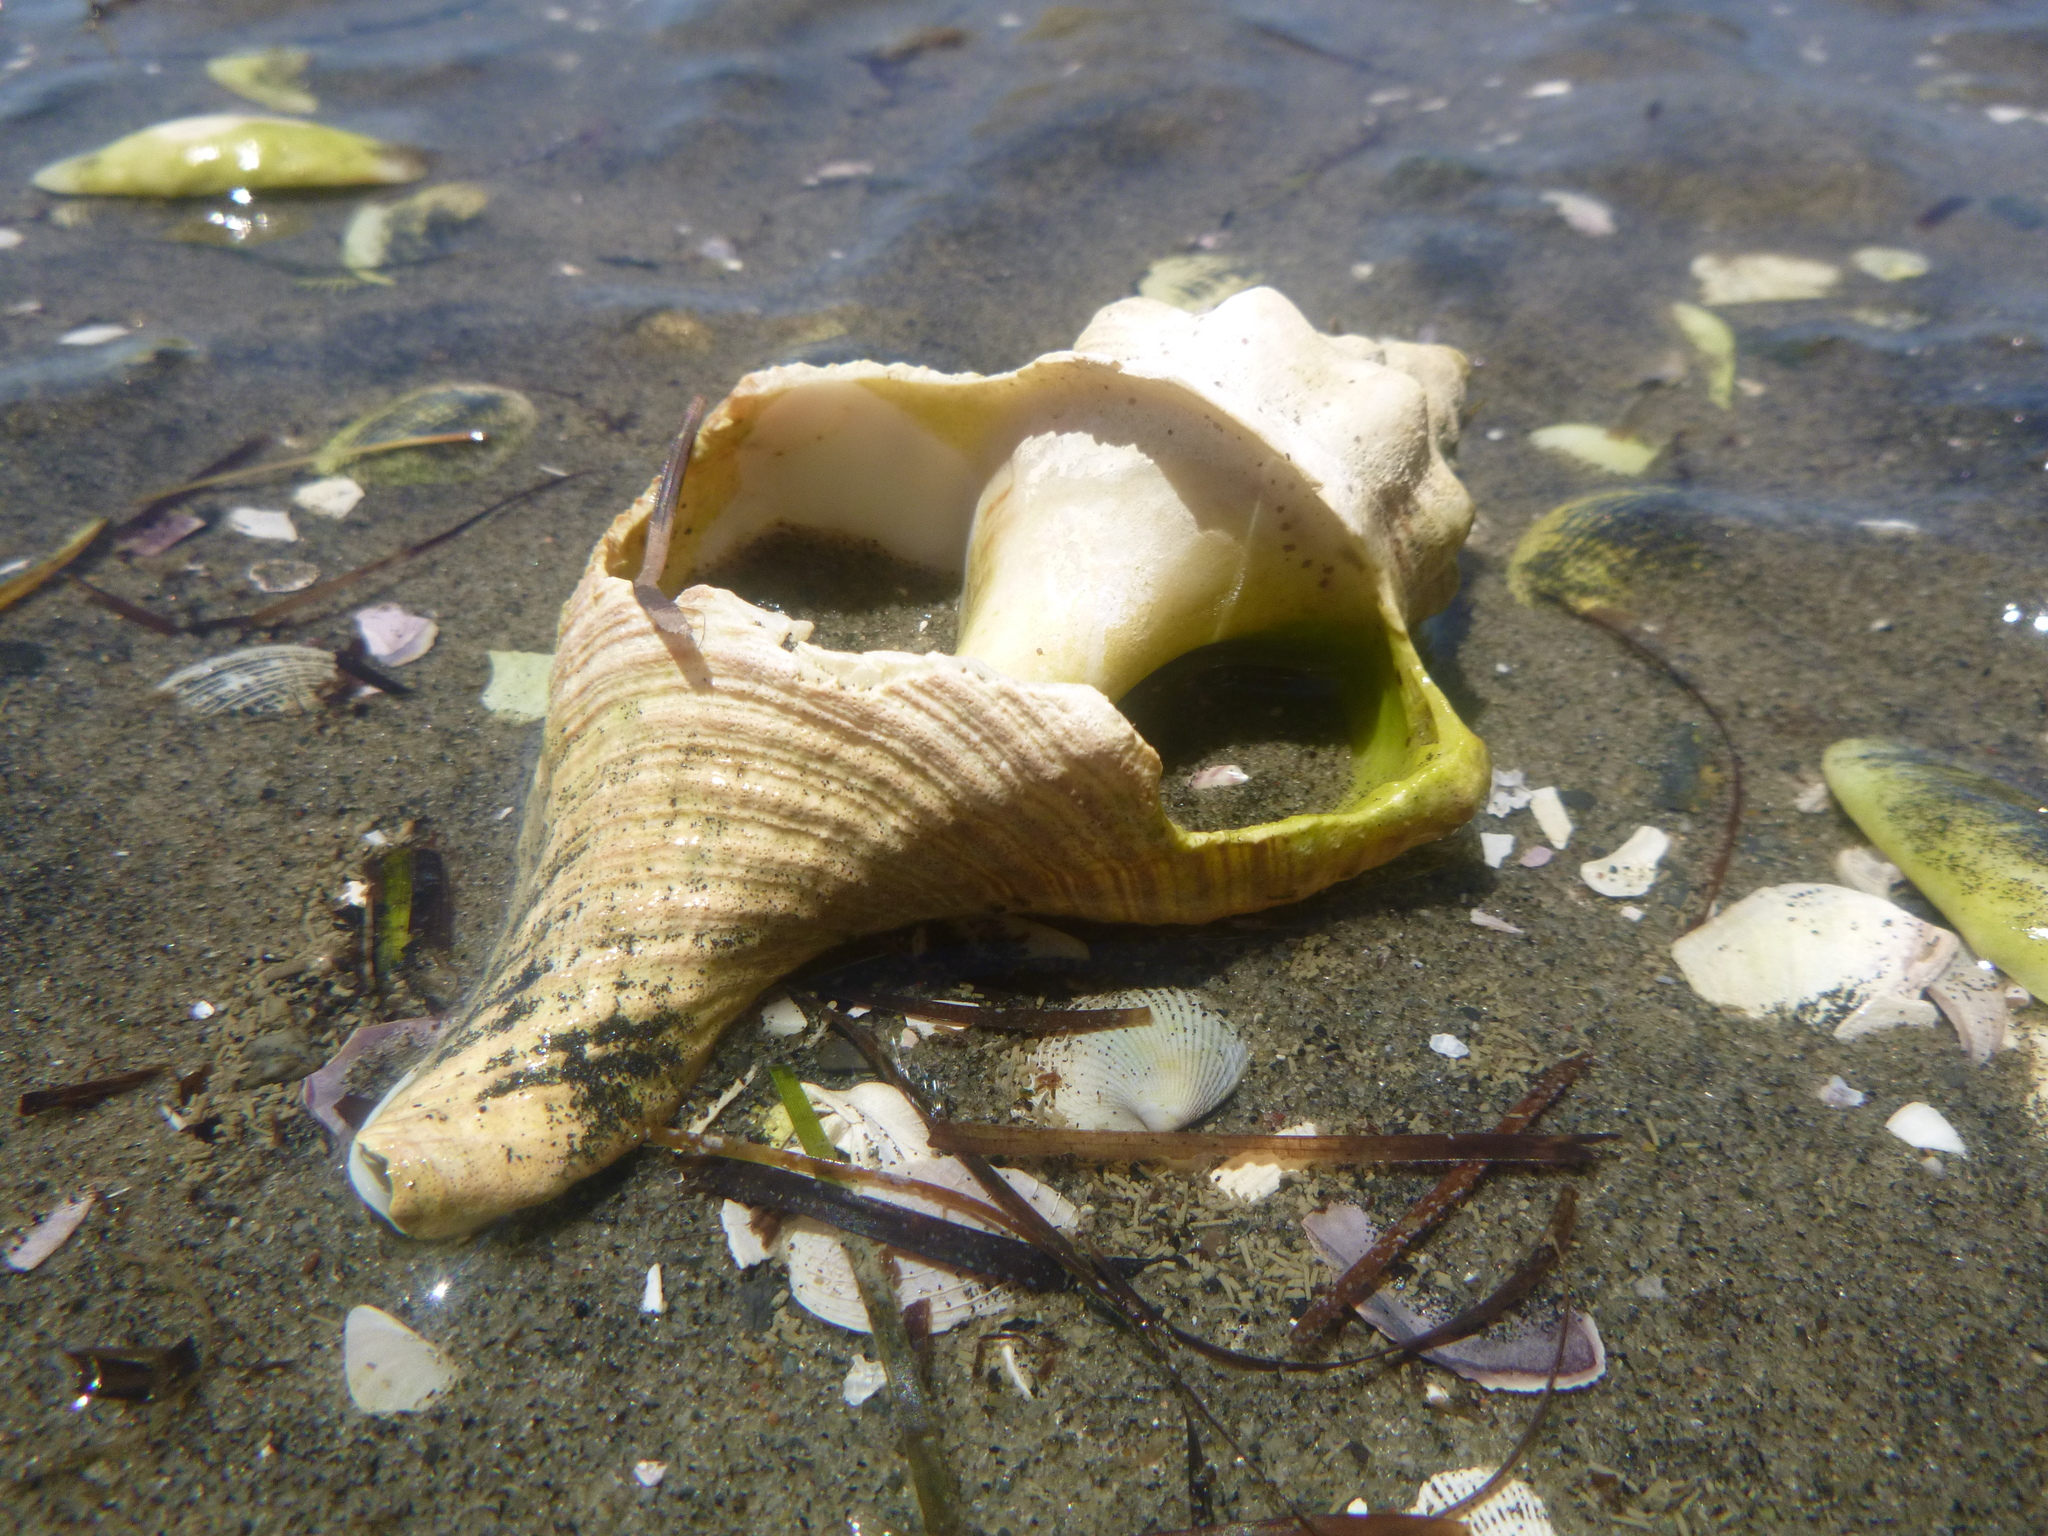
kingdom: Animalia
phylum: Mollusca
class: Gastropoda
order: Neogastropoda
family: Austrosiphonidae
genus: Penion
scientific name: Penion sulcatus
